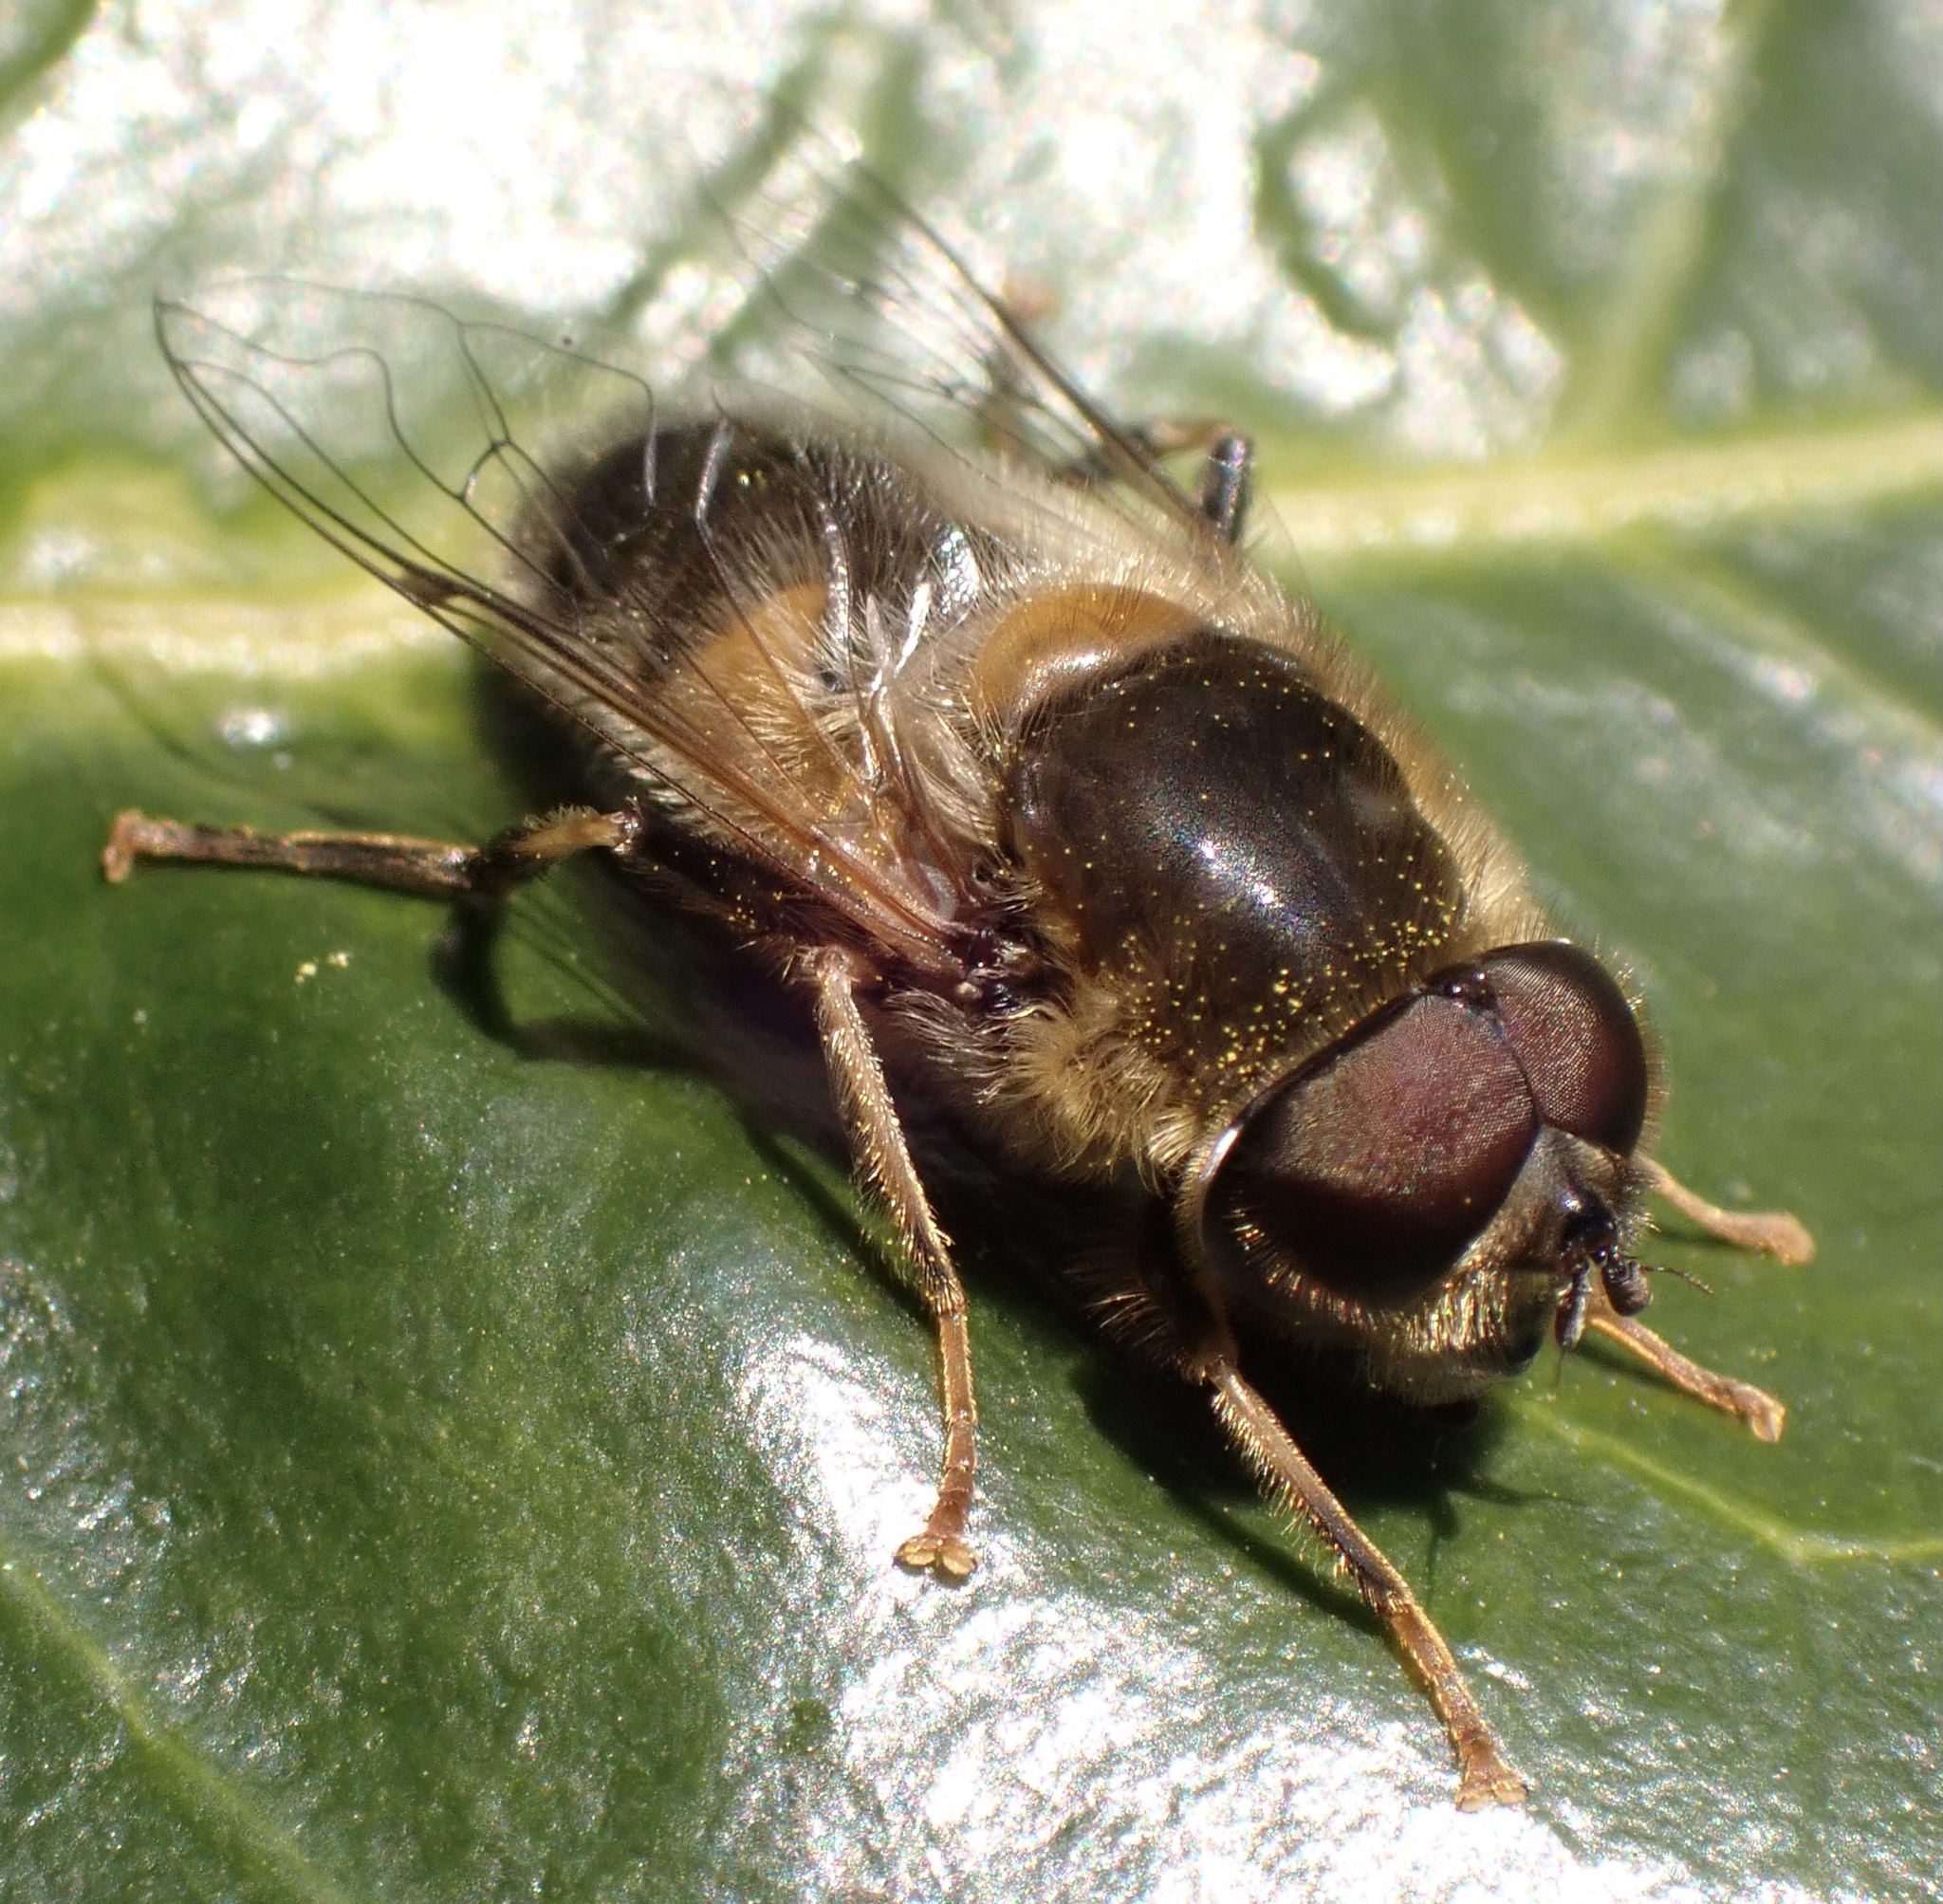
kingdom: Animalia
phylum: Arthropoda
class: Insecta
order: Diptera
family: Syrphidae
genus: Eristalis
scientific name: Eristalis pertinax
